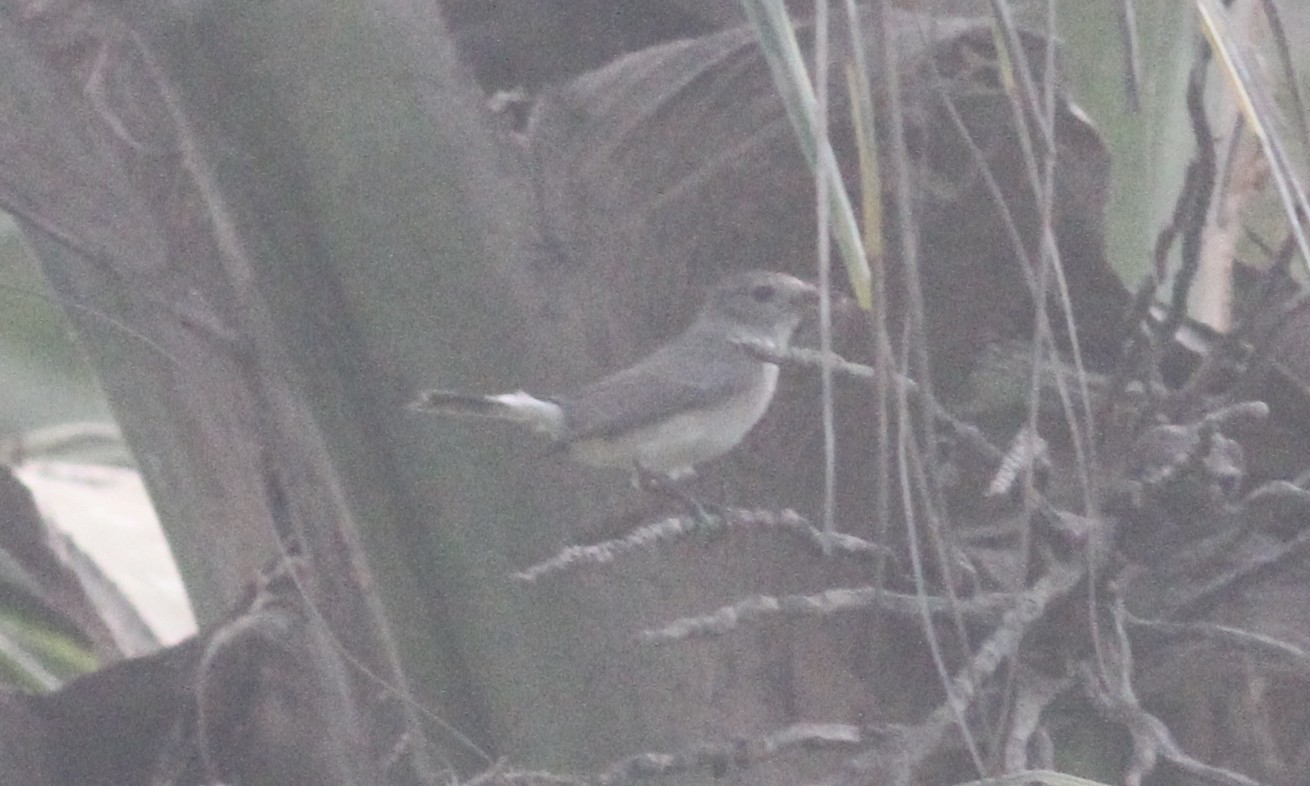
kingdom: Animalia
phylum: Chordata
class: Aves
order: Passeriformes
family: Muscicapidae
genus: Ficedula
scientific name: Ficedula albicilla
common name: Taiga flycatcher
